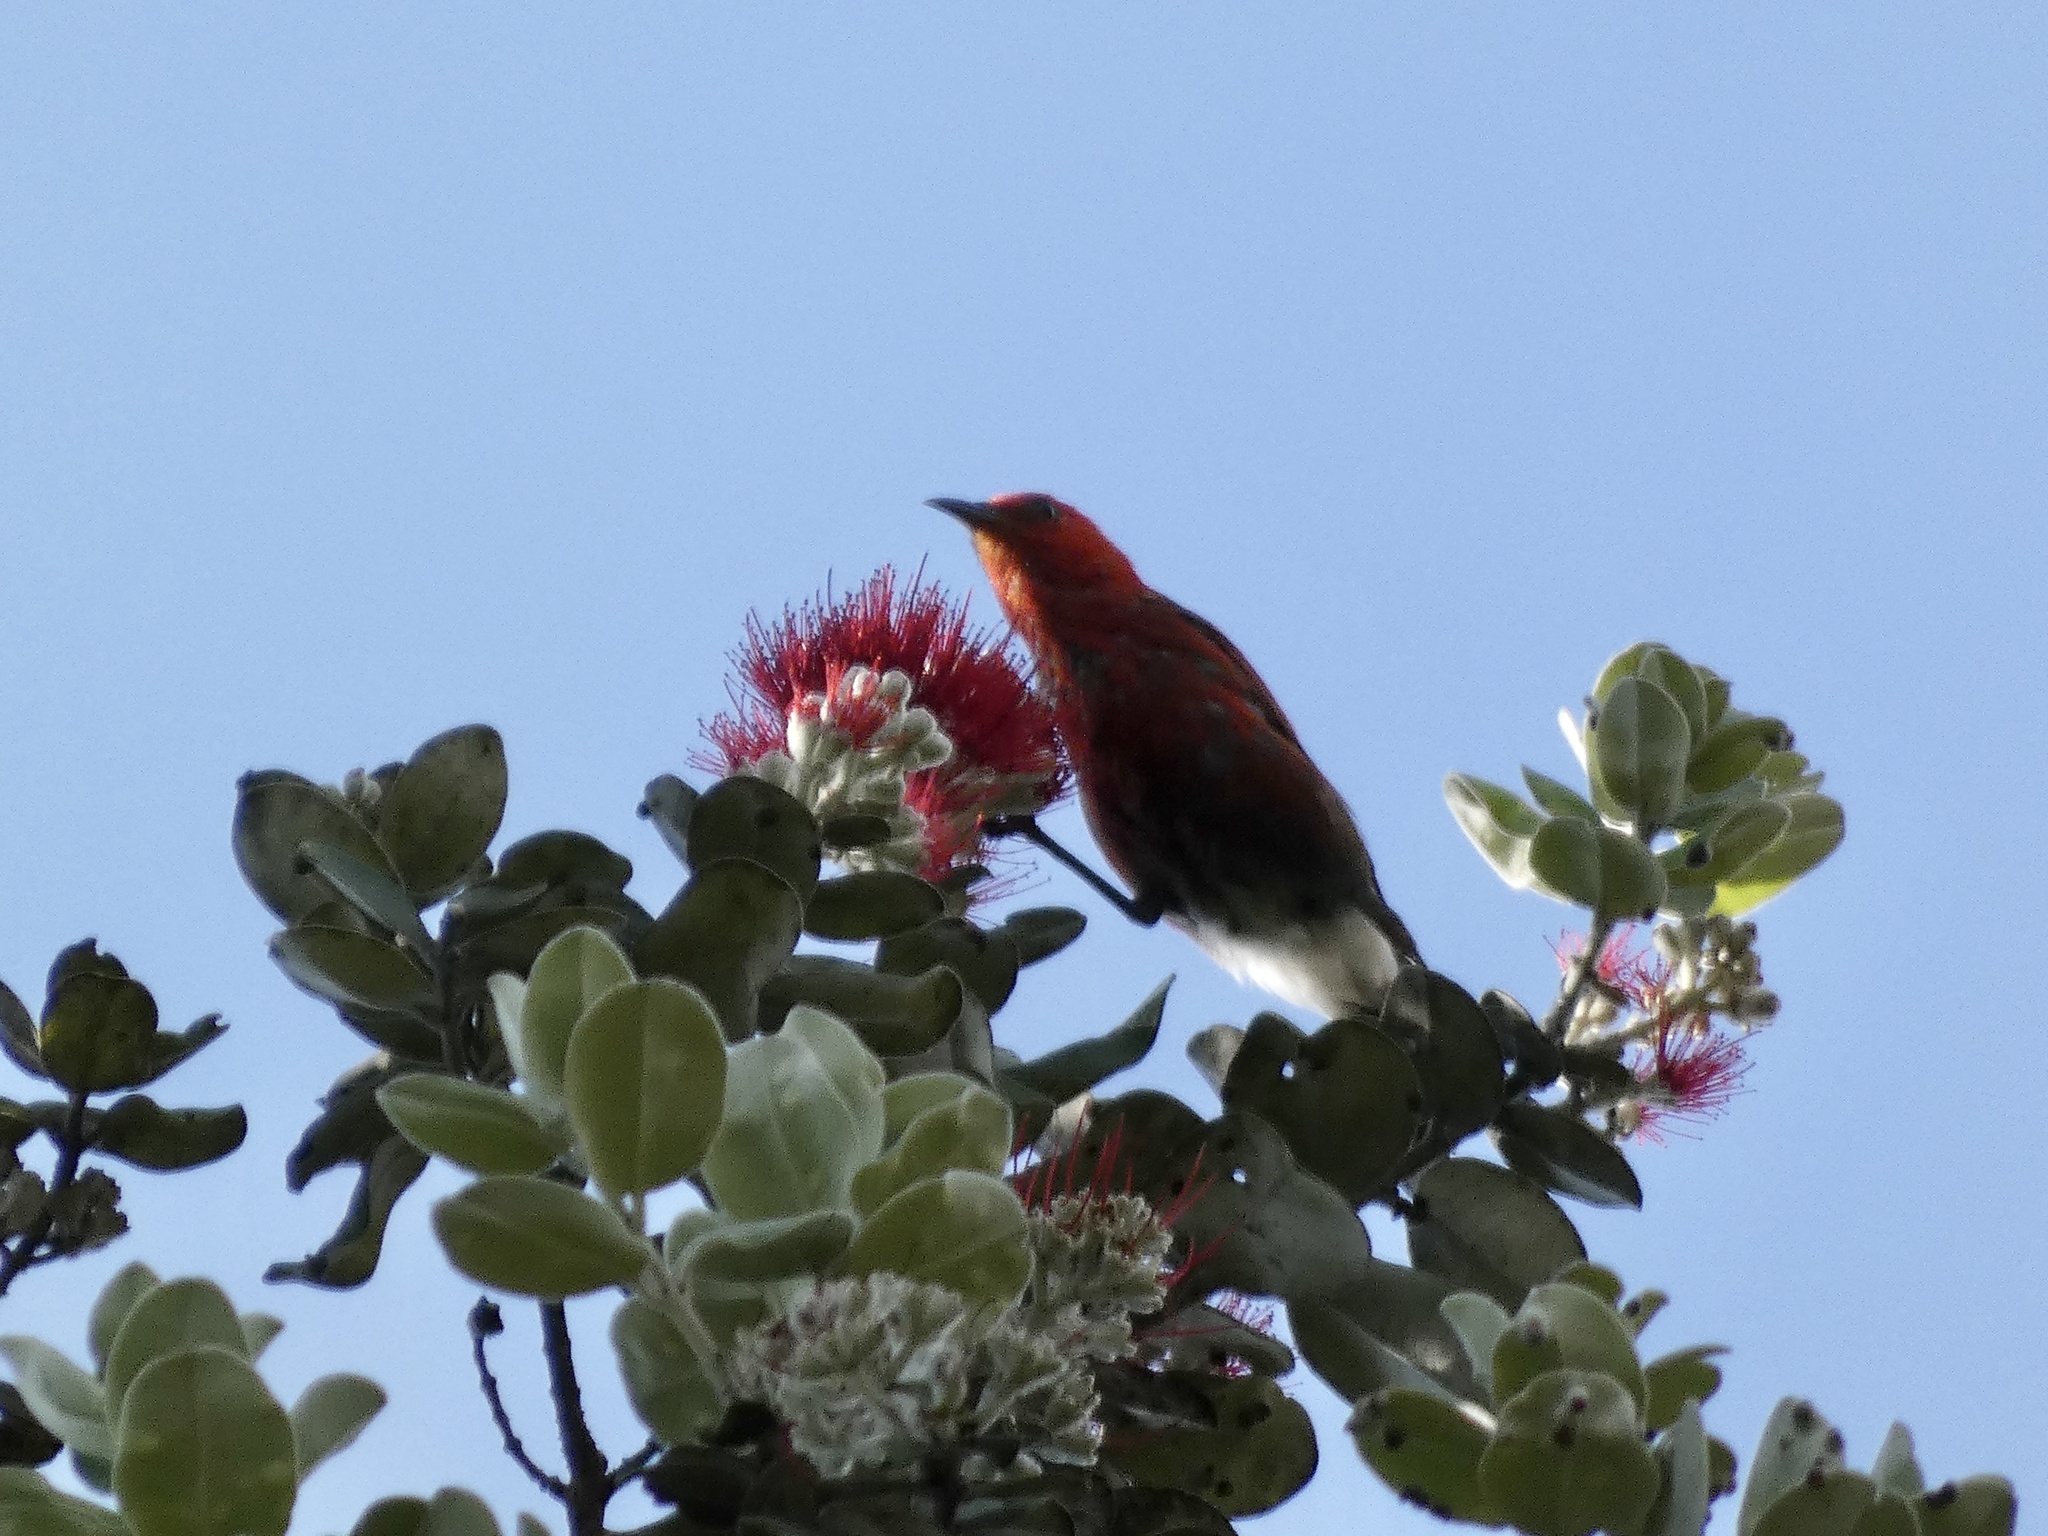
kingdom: Animalia
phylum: Chordata
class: Aves
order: Passeriformes
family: Fringillidae
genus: Himatione
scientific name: Himatione sanguinea
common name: Apapane
